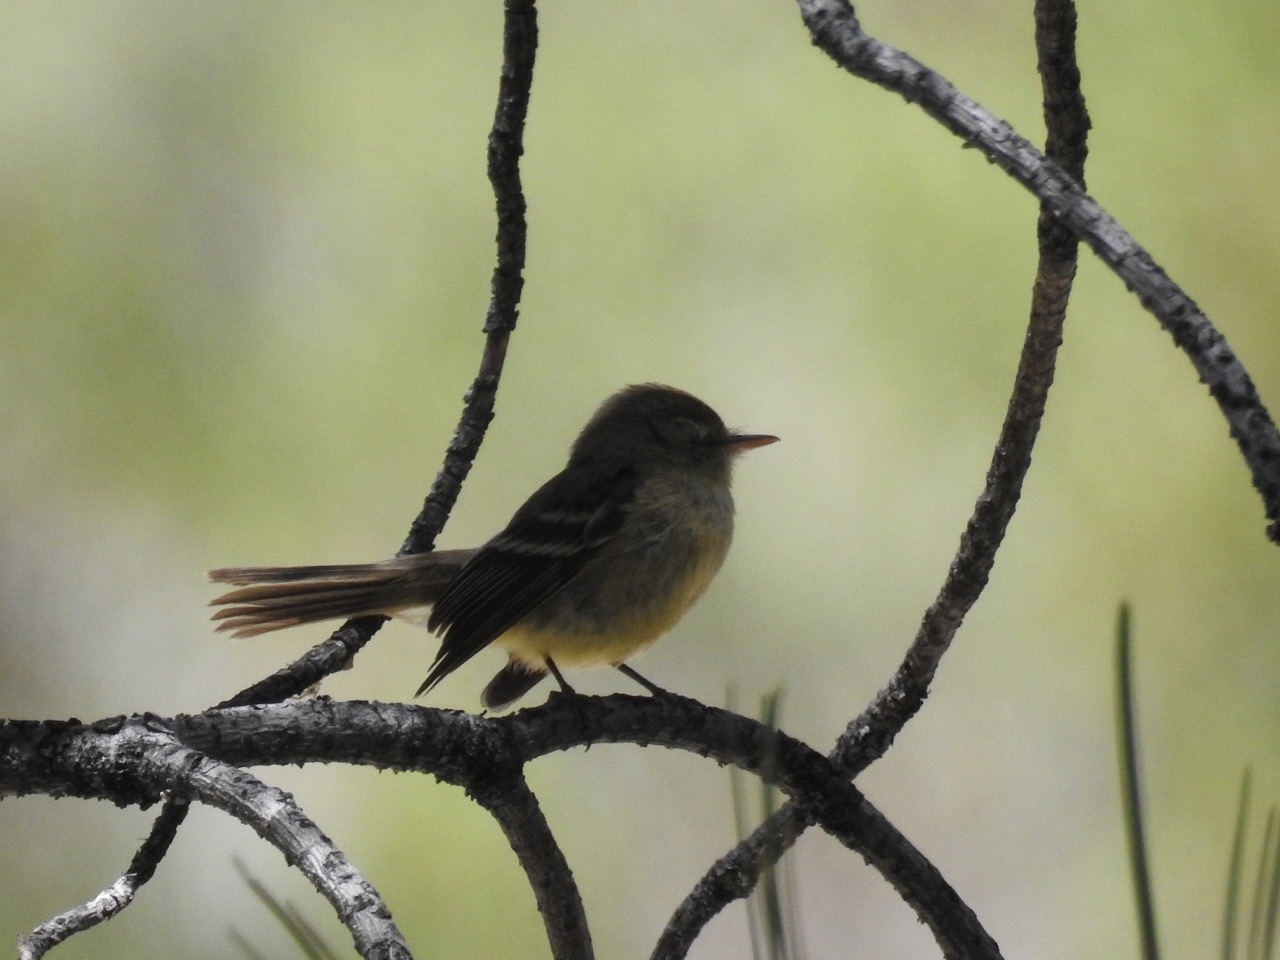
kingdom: Animalia
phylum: Chordata
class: Aves
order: Passeriformes
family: Tyrannidae
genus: Empidonax
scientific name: Empidonax difficilis
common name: Pacific-slope flycatcher
